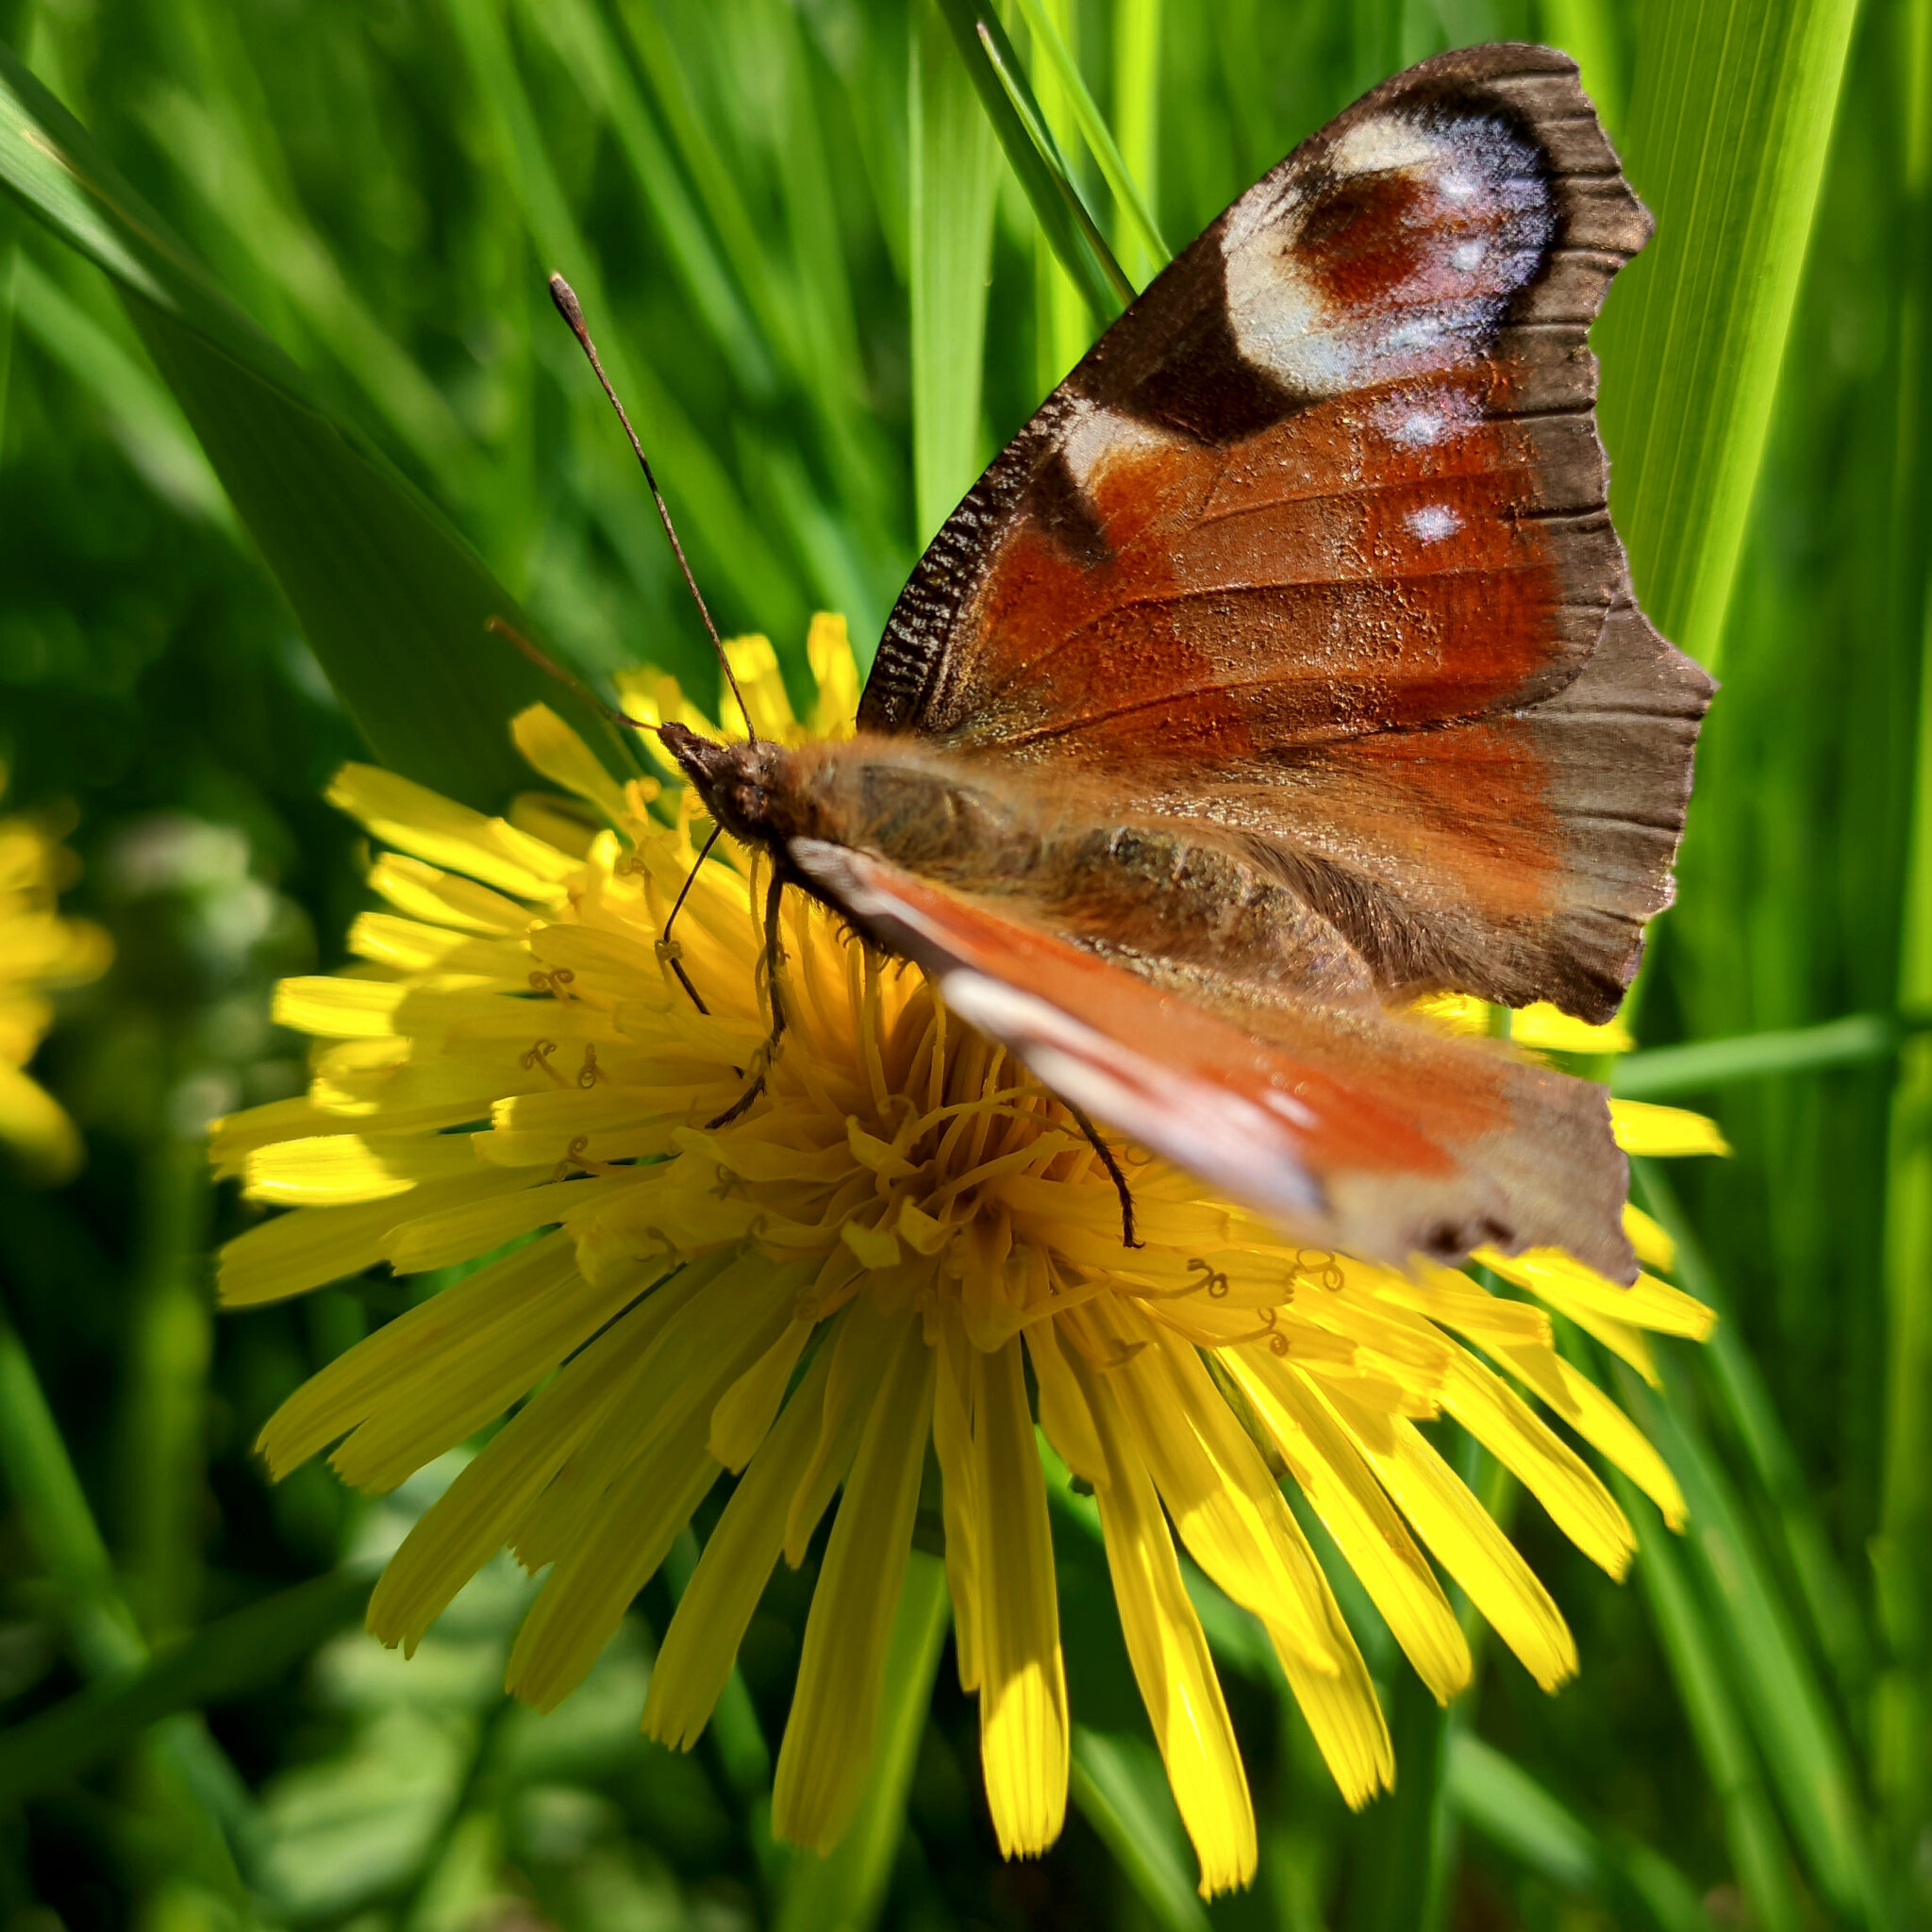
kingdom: Animalia
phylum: Arthropoda
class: Insecta
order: Lepidoptera
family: Nymphalidae
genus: Aglais
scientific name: Aglais io
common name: Peacock
